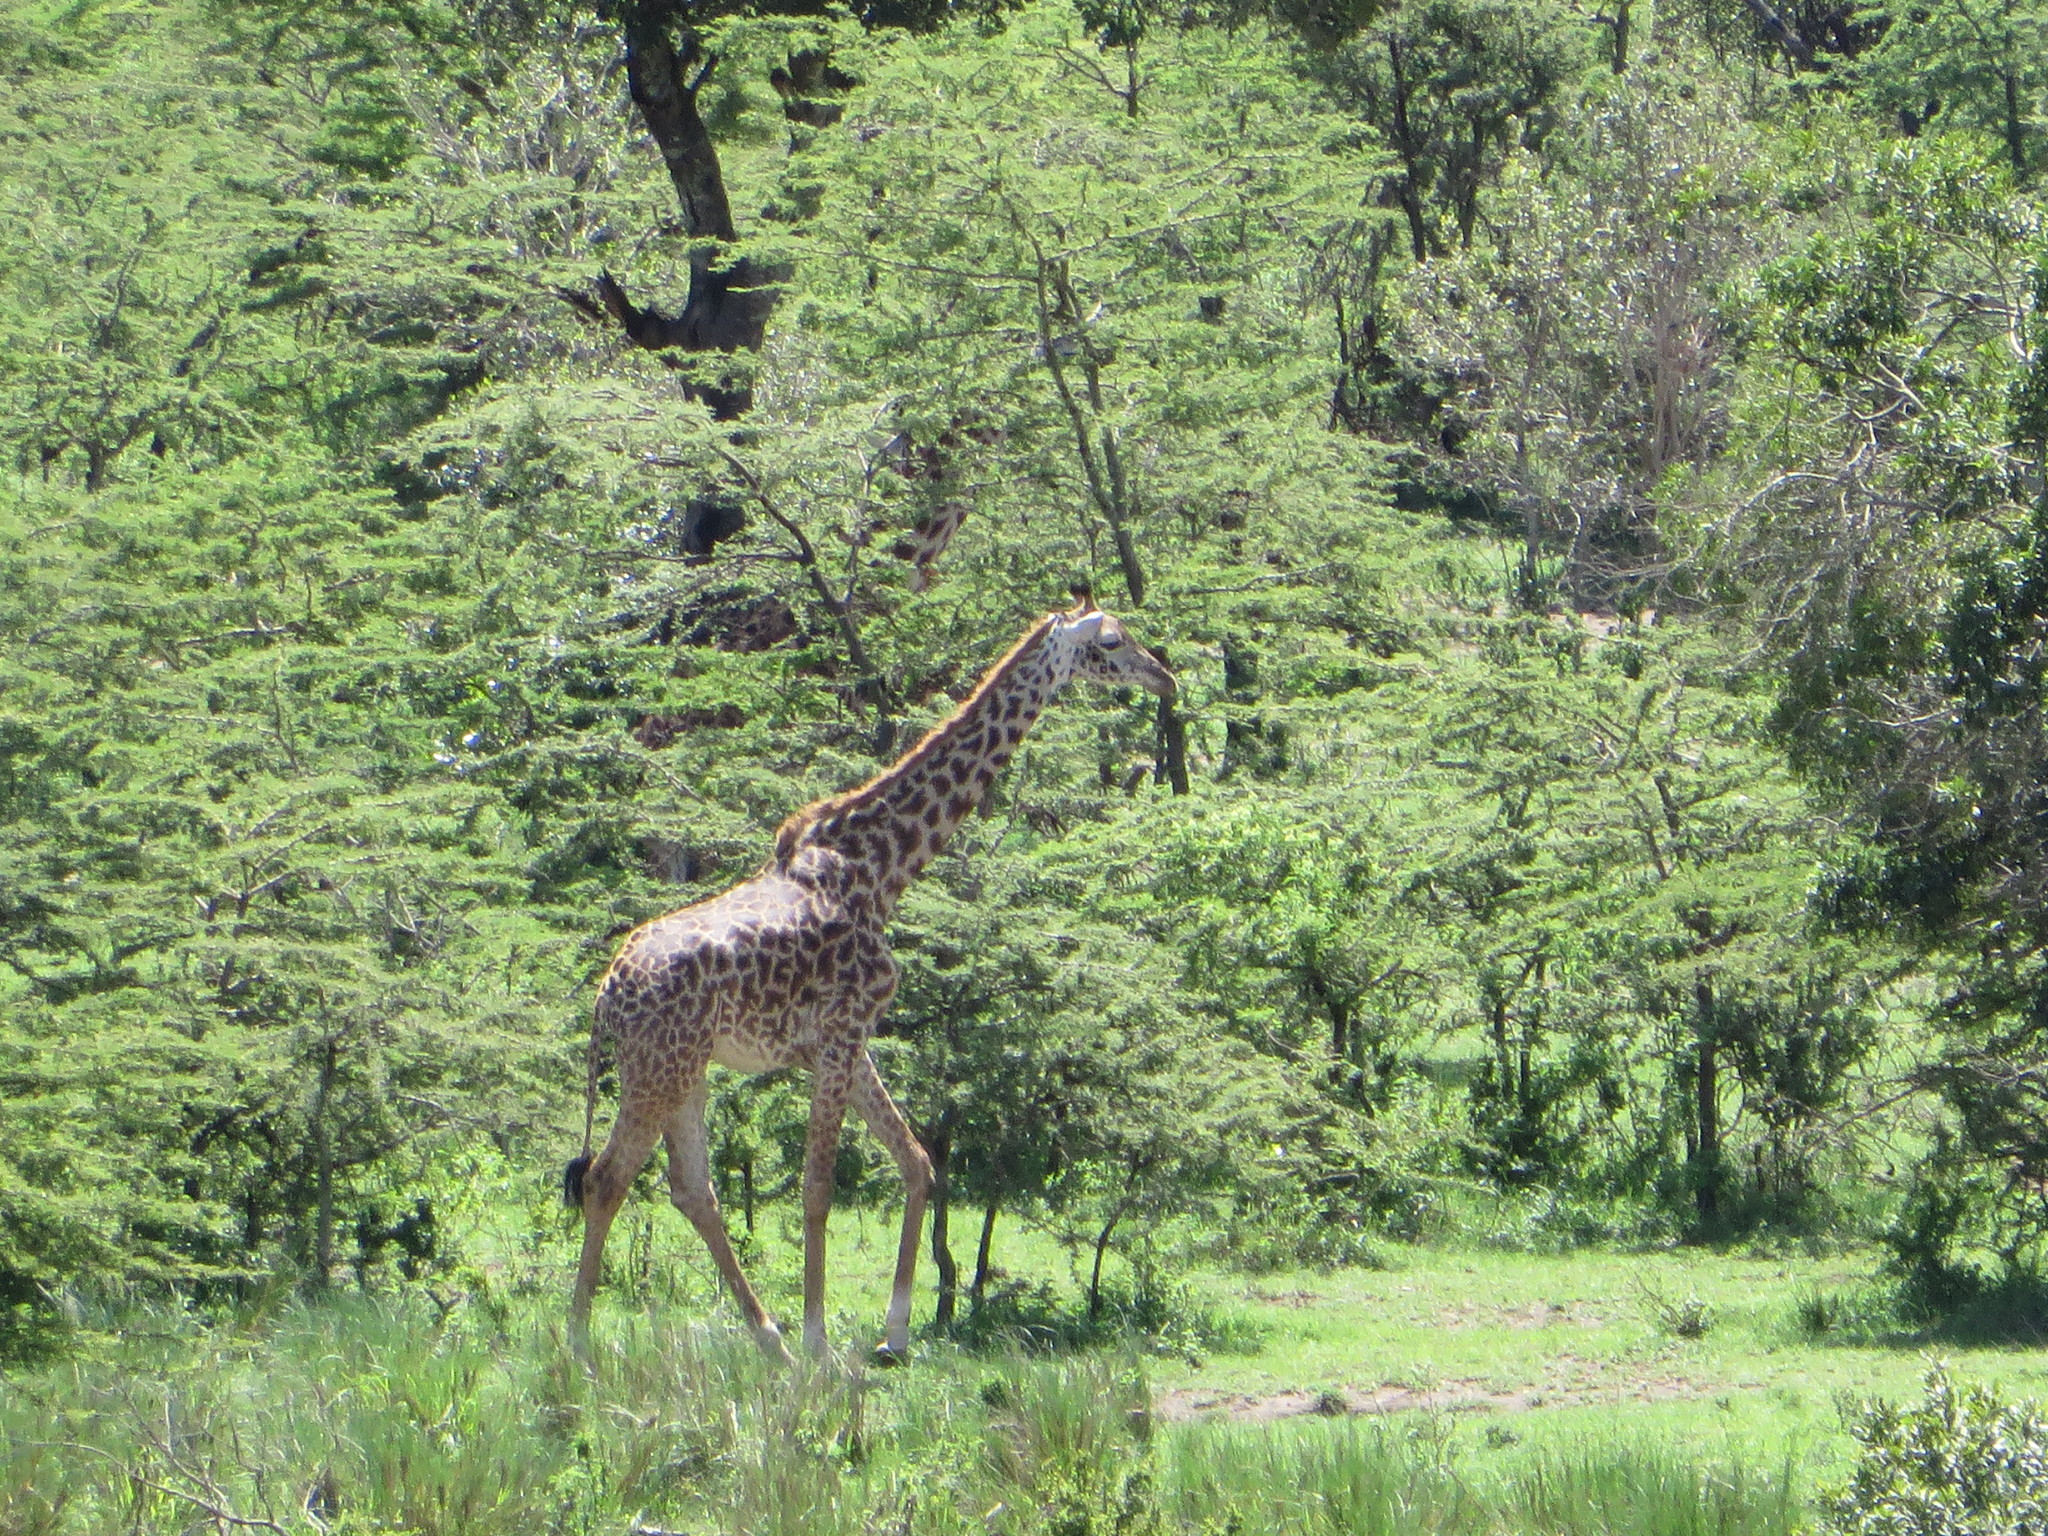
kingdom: Animalia
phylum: Chordata
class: Mammalia
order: Artiodactyla
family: Giraffidae
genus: Giraffa
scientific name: Giraffa tippelskirchi
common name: Masai giraffe
